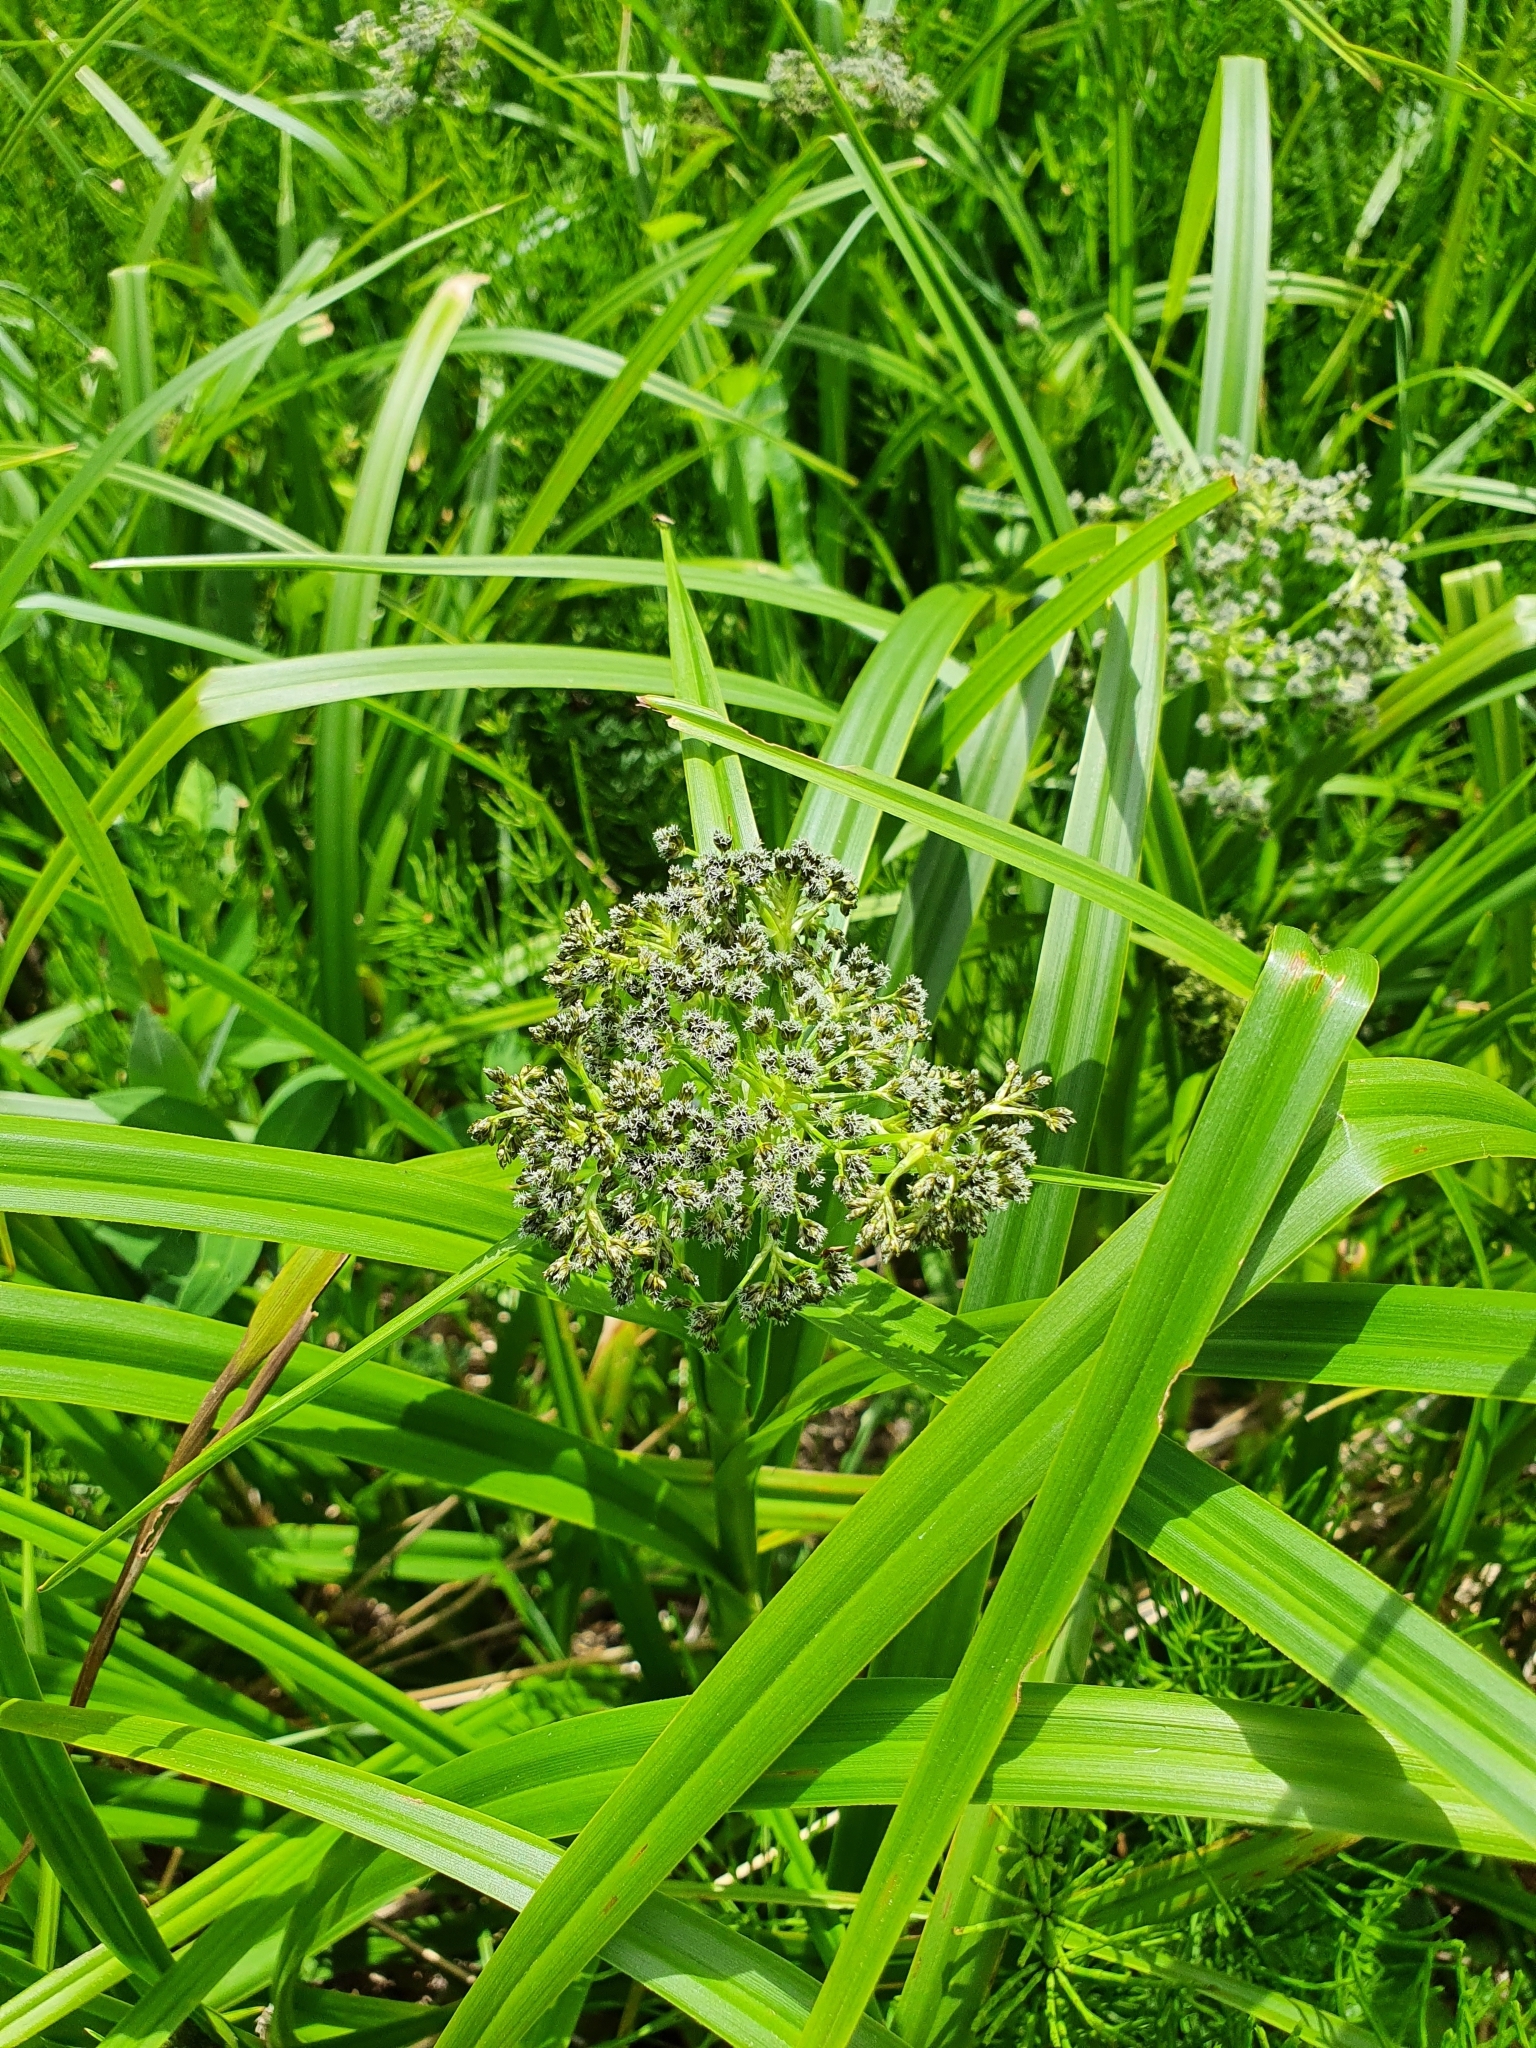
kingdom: Plantae
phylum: Tracheophyta
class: Liliopsida
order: Poales
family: Cyperaceae
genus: Scirpus
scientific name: Scirpus sylvaticus
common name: Wood club-rush
